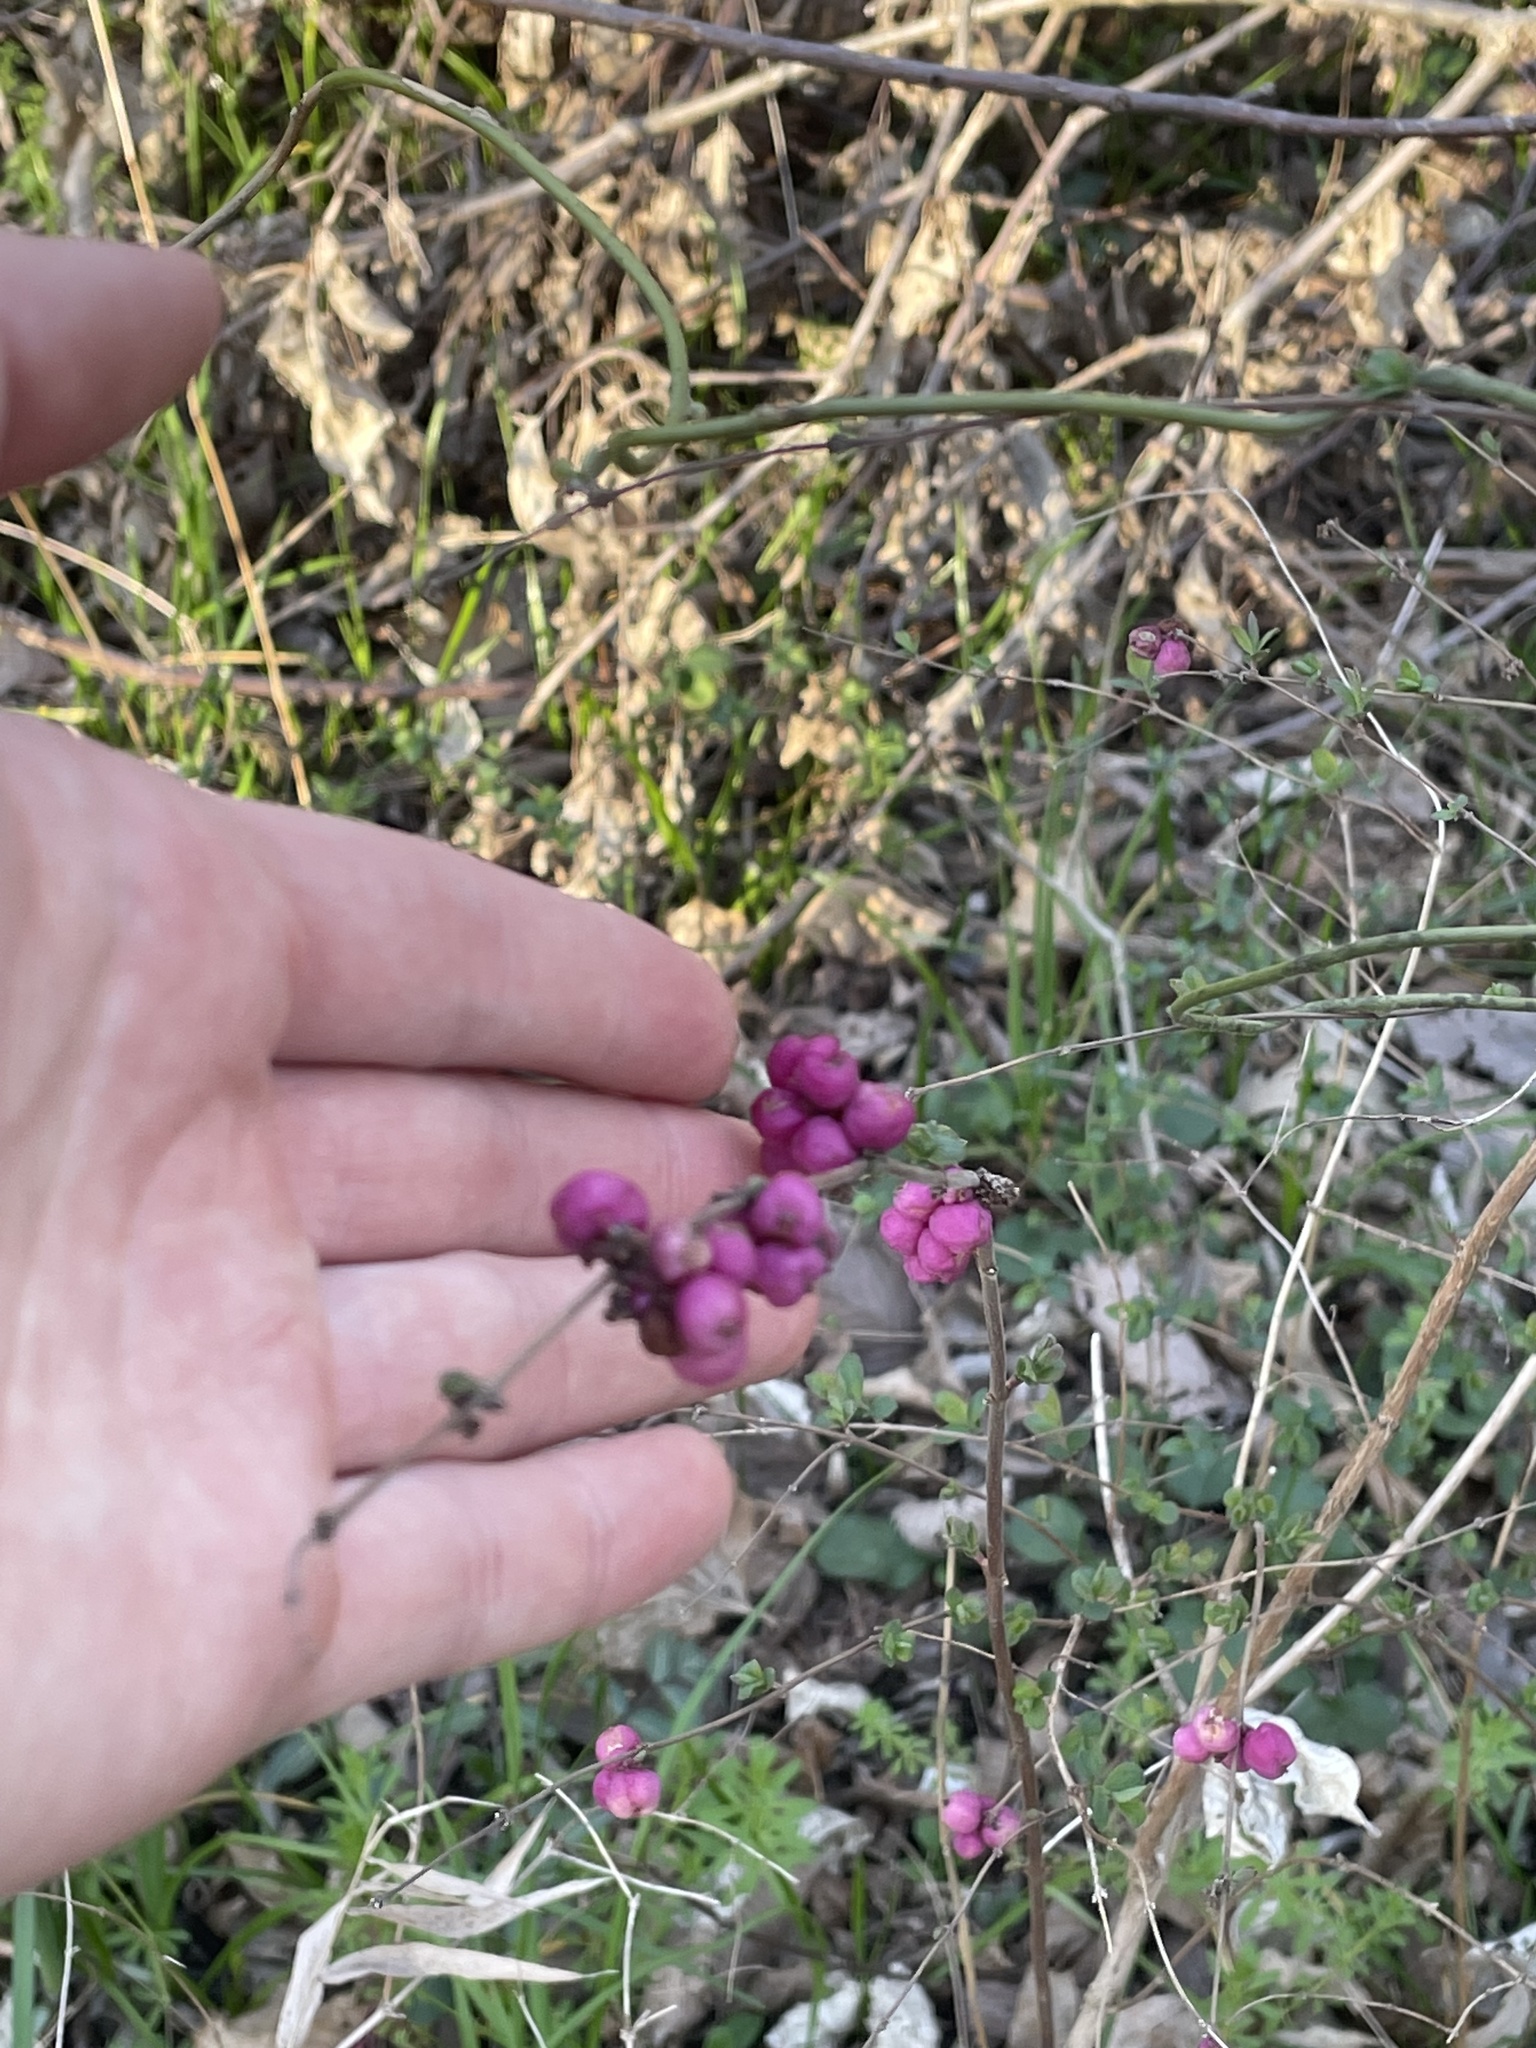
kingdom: Plantae
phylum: Tracheophyta
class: Magnoliopsida
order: Dipsacales
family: Caprifoliaceae
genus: Symphoricarpos
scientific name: Symphoricarpos orbiculatus
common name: Coralberry
